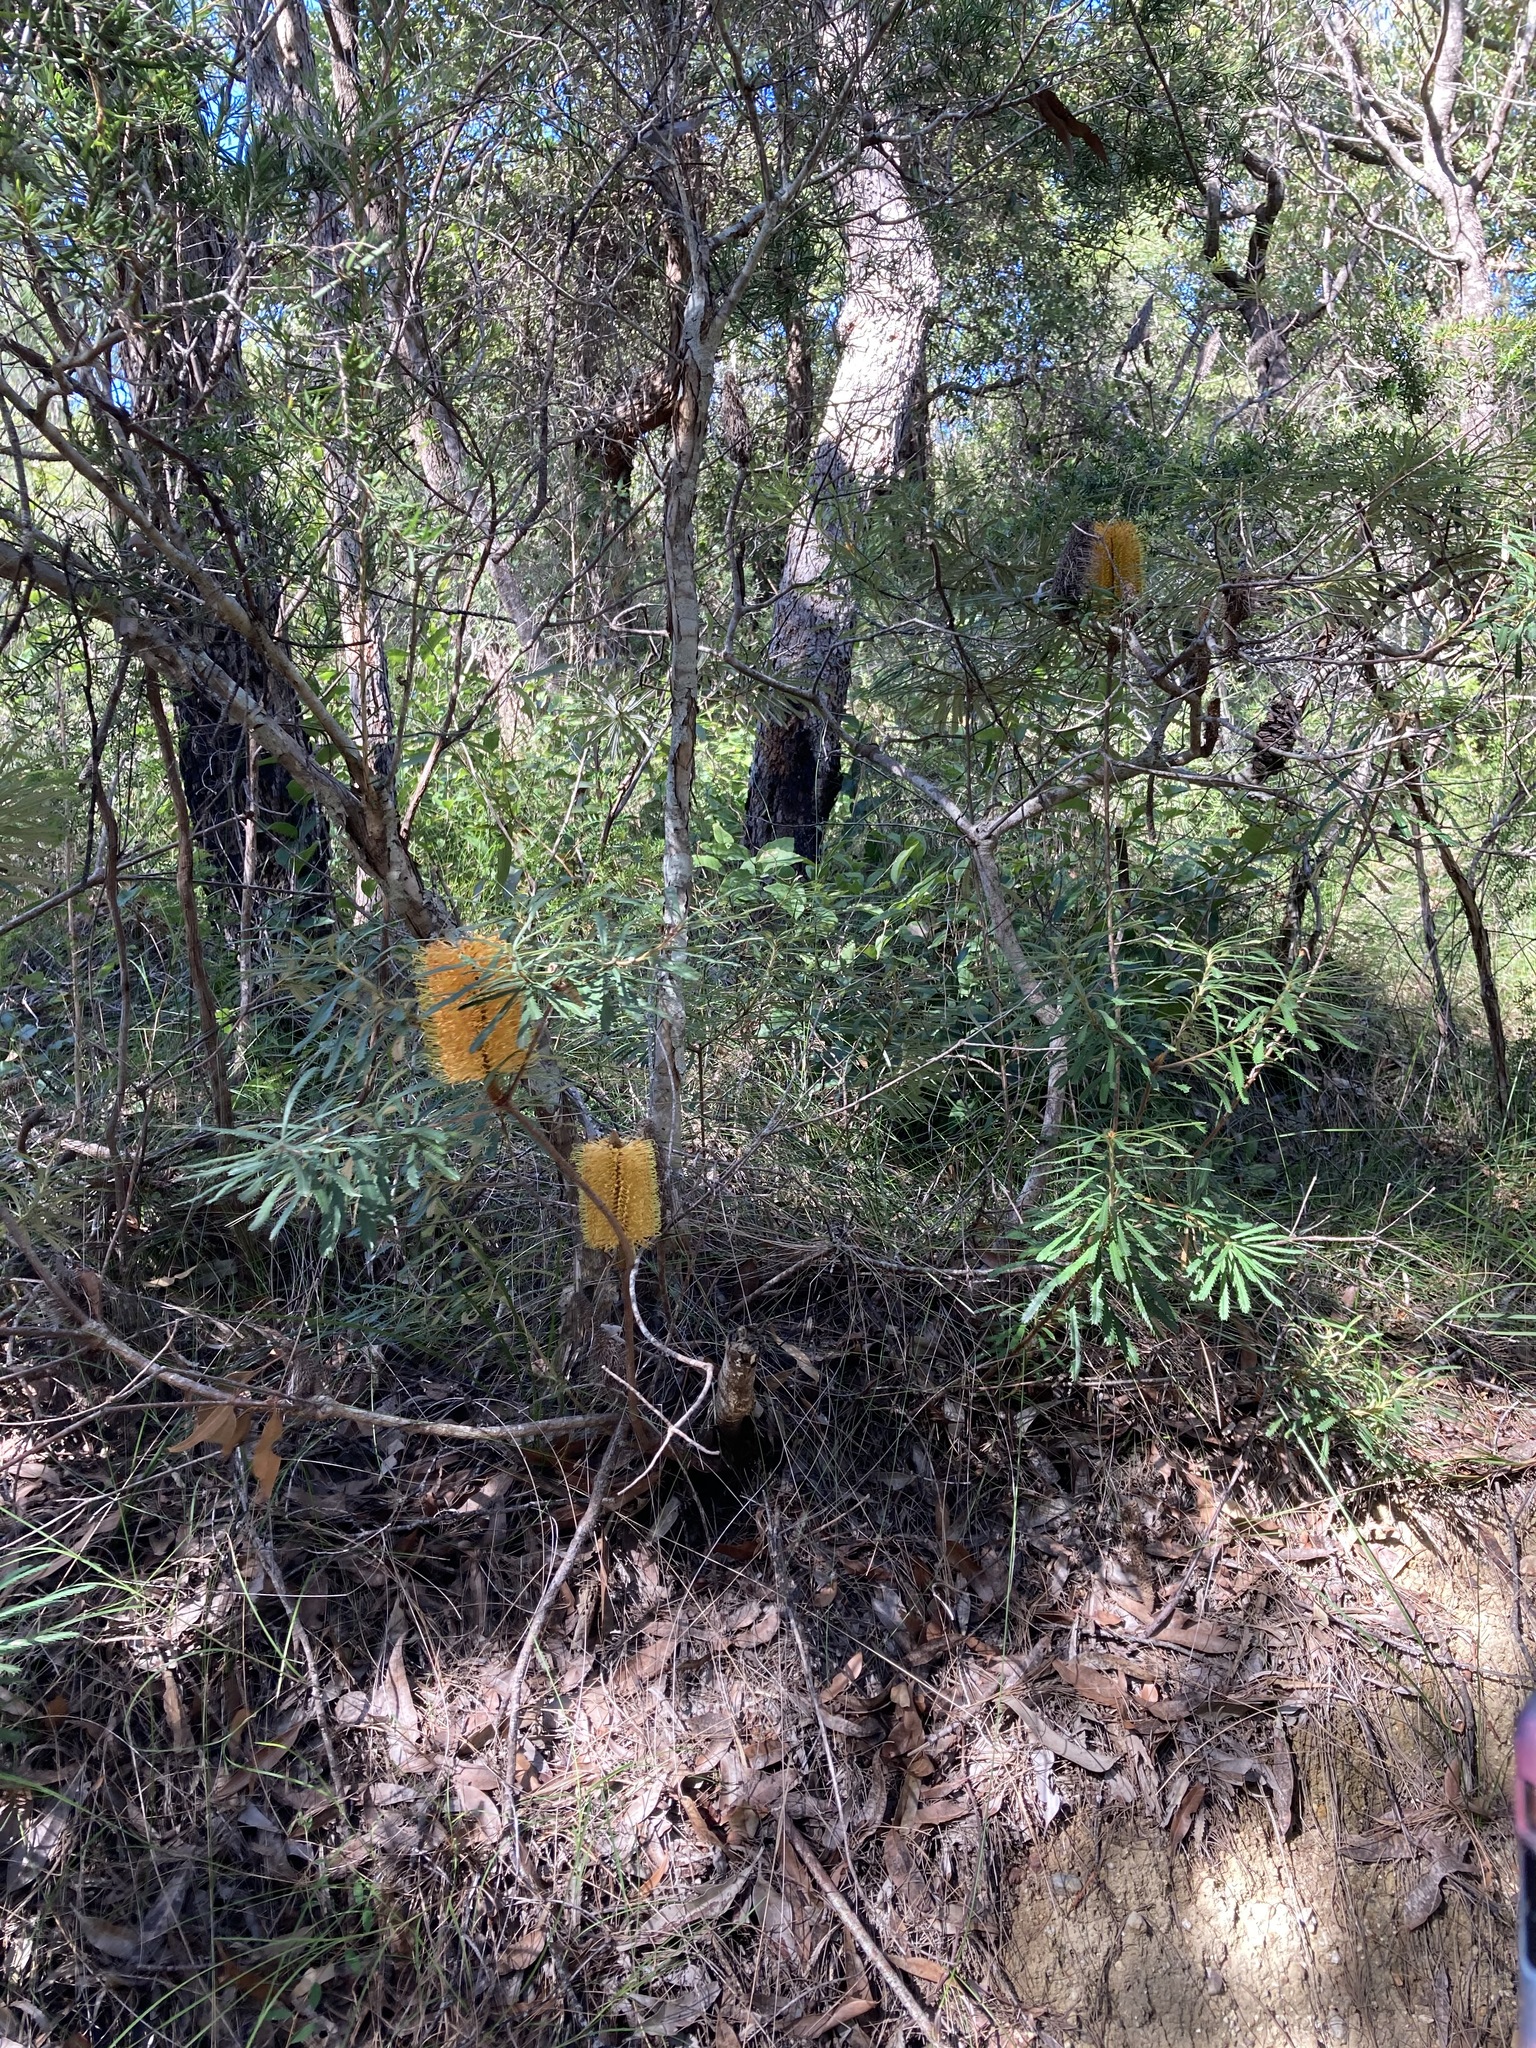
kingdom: Plantae
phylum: Tracheophyta
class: Magnoliopsida
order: Proteales
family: Proteaceae
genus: Banksia
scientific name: Banksia spinulosa
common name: Hairpin banksia
